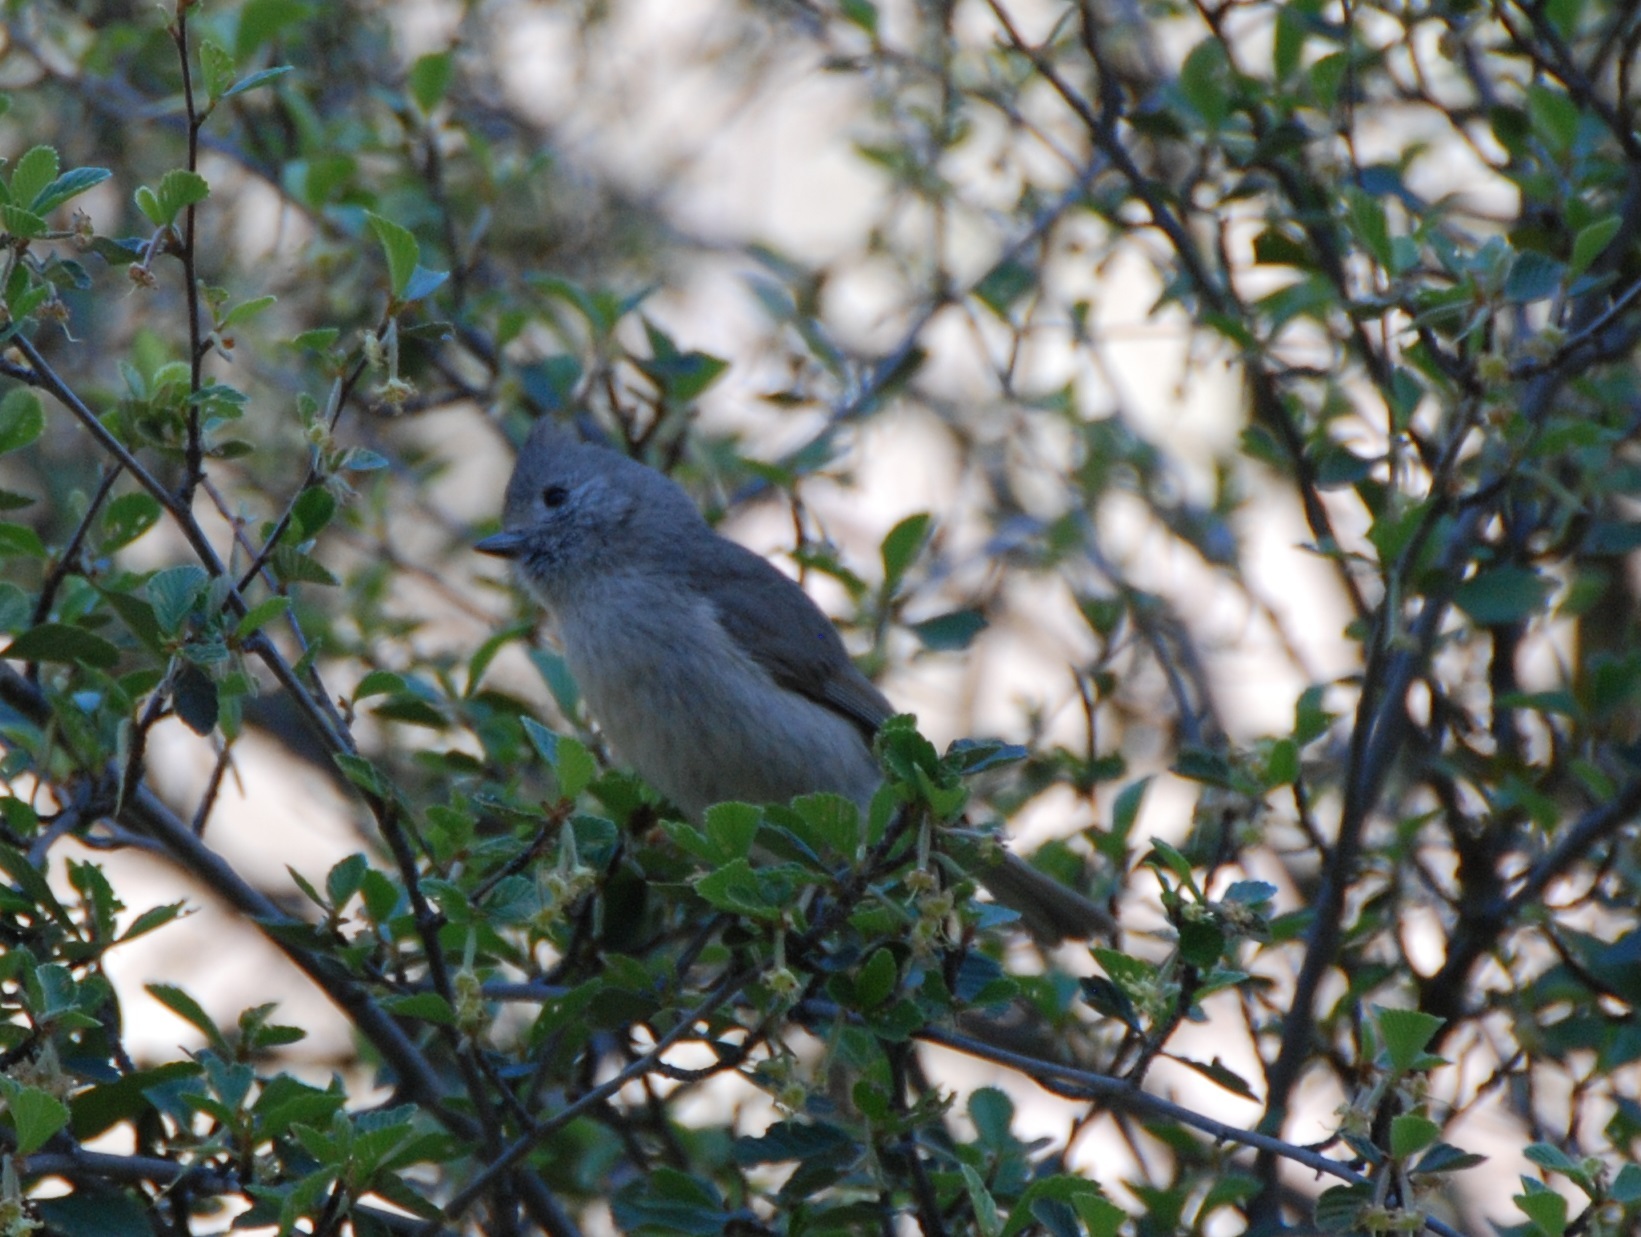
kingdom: Animalia
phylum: Chordata
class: Aves
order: Passeriformes
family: Paridae
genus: Baeolophus
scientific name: Baeolophus inornatus
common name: Oak titmouse
